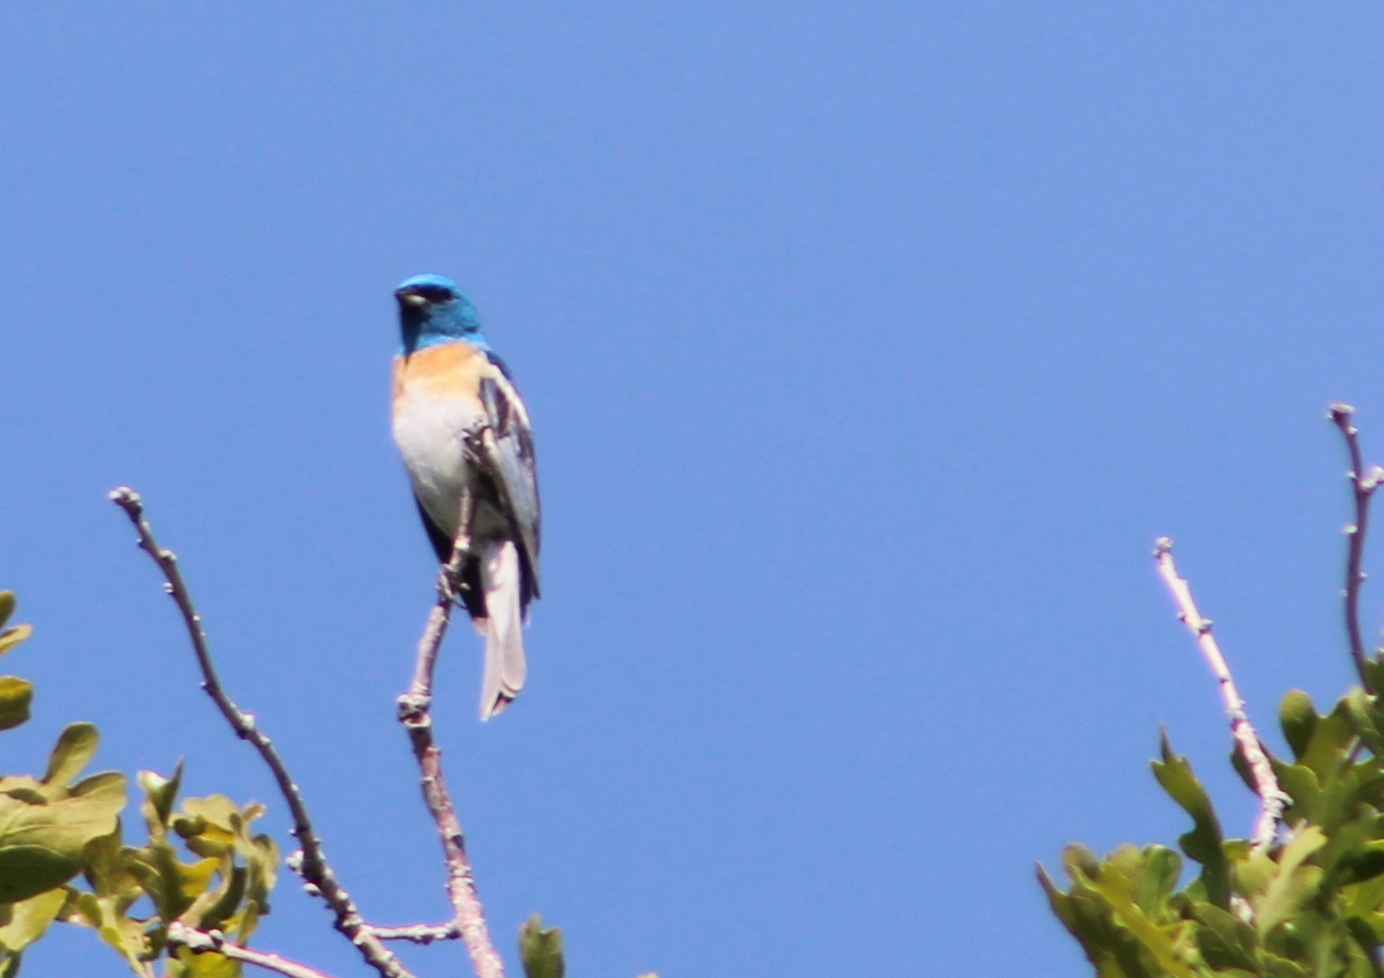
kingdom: Animalia
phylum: Chordata
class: Aves
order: Passeriformes
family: Cardinalidae
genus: Passerina
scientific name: Passerina amoena
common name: Lazuli bunting
